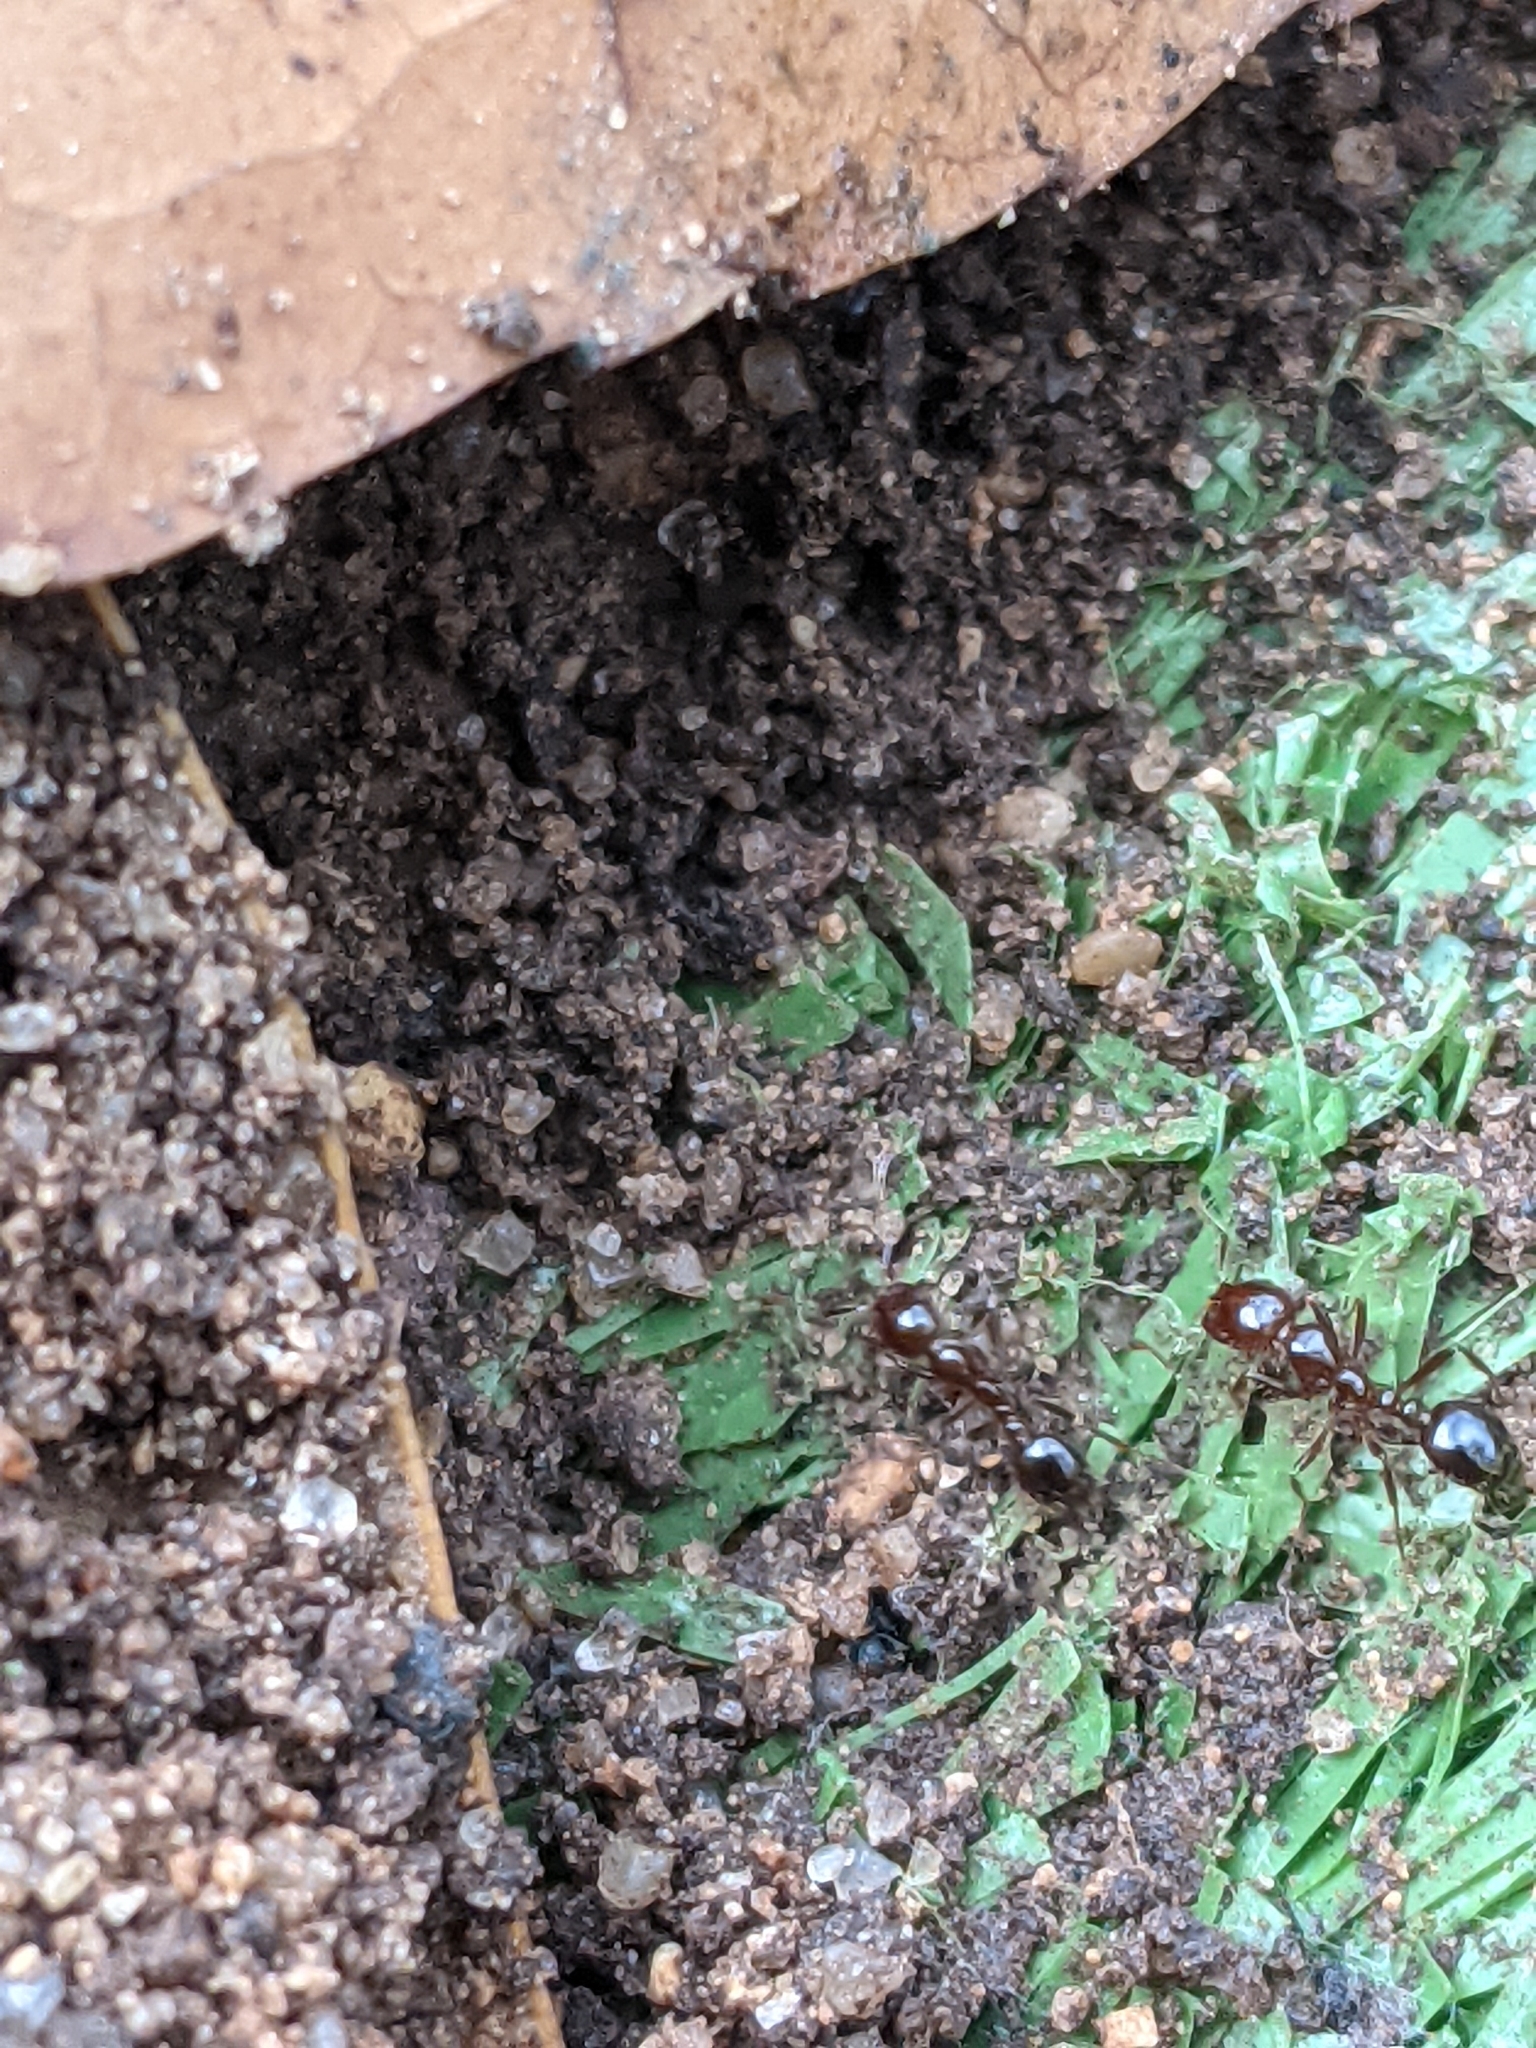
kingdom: Animalia
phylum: Arthropoda
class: Insecta
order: Hymenoptera
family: Formicidae
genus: Solenopsis
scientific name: Solenopsis invicta
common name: Red imported fire ant
